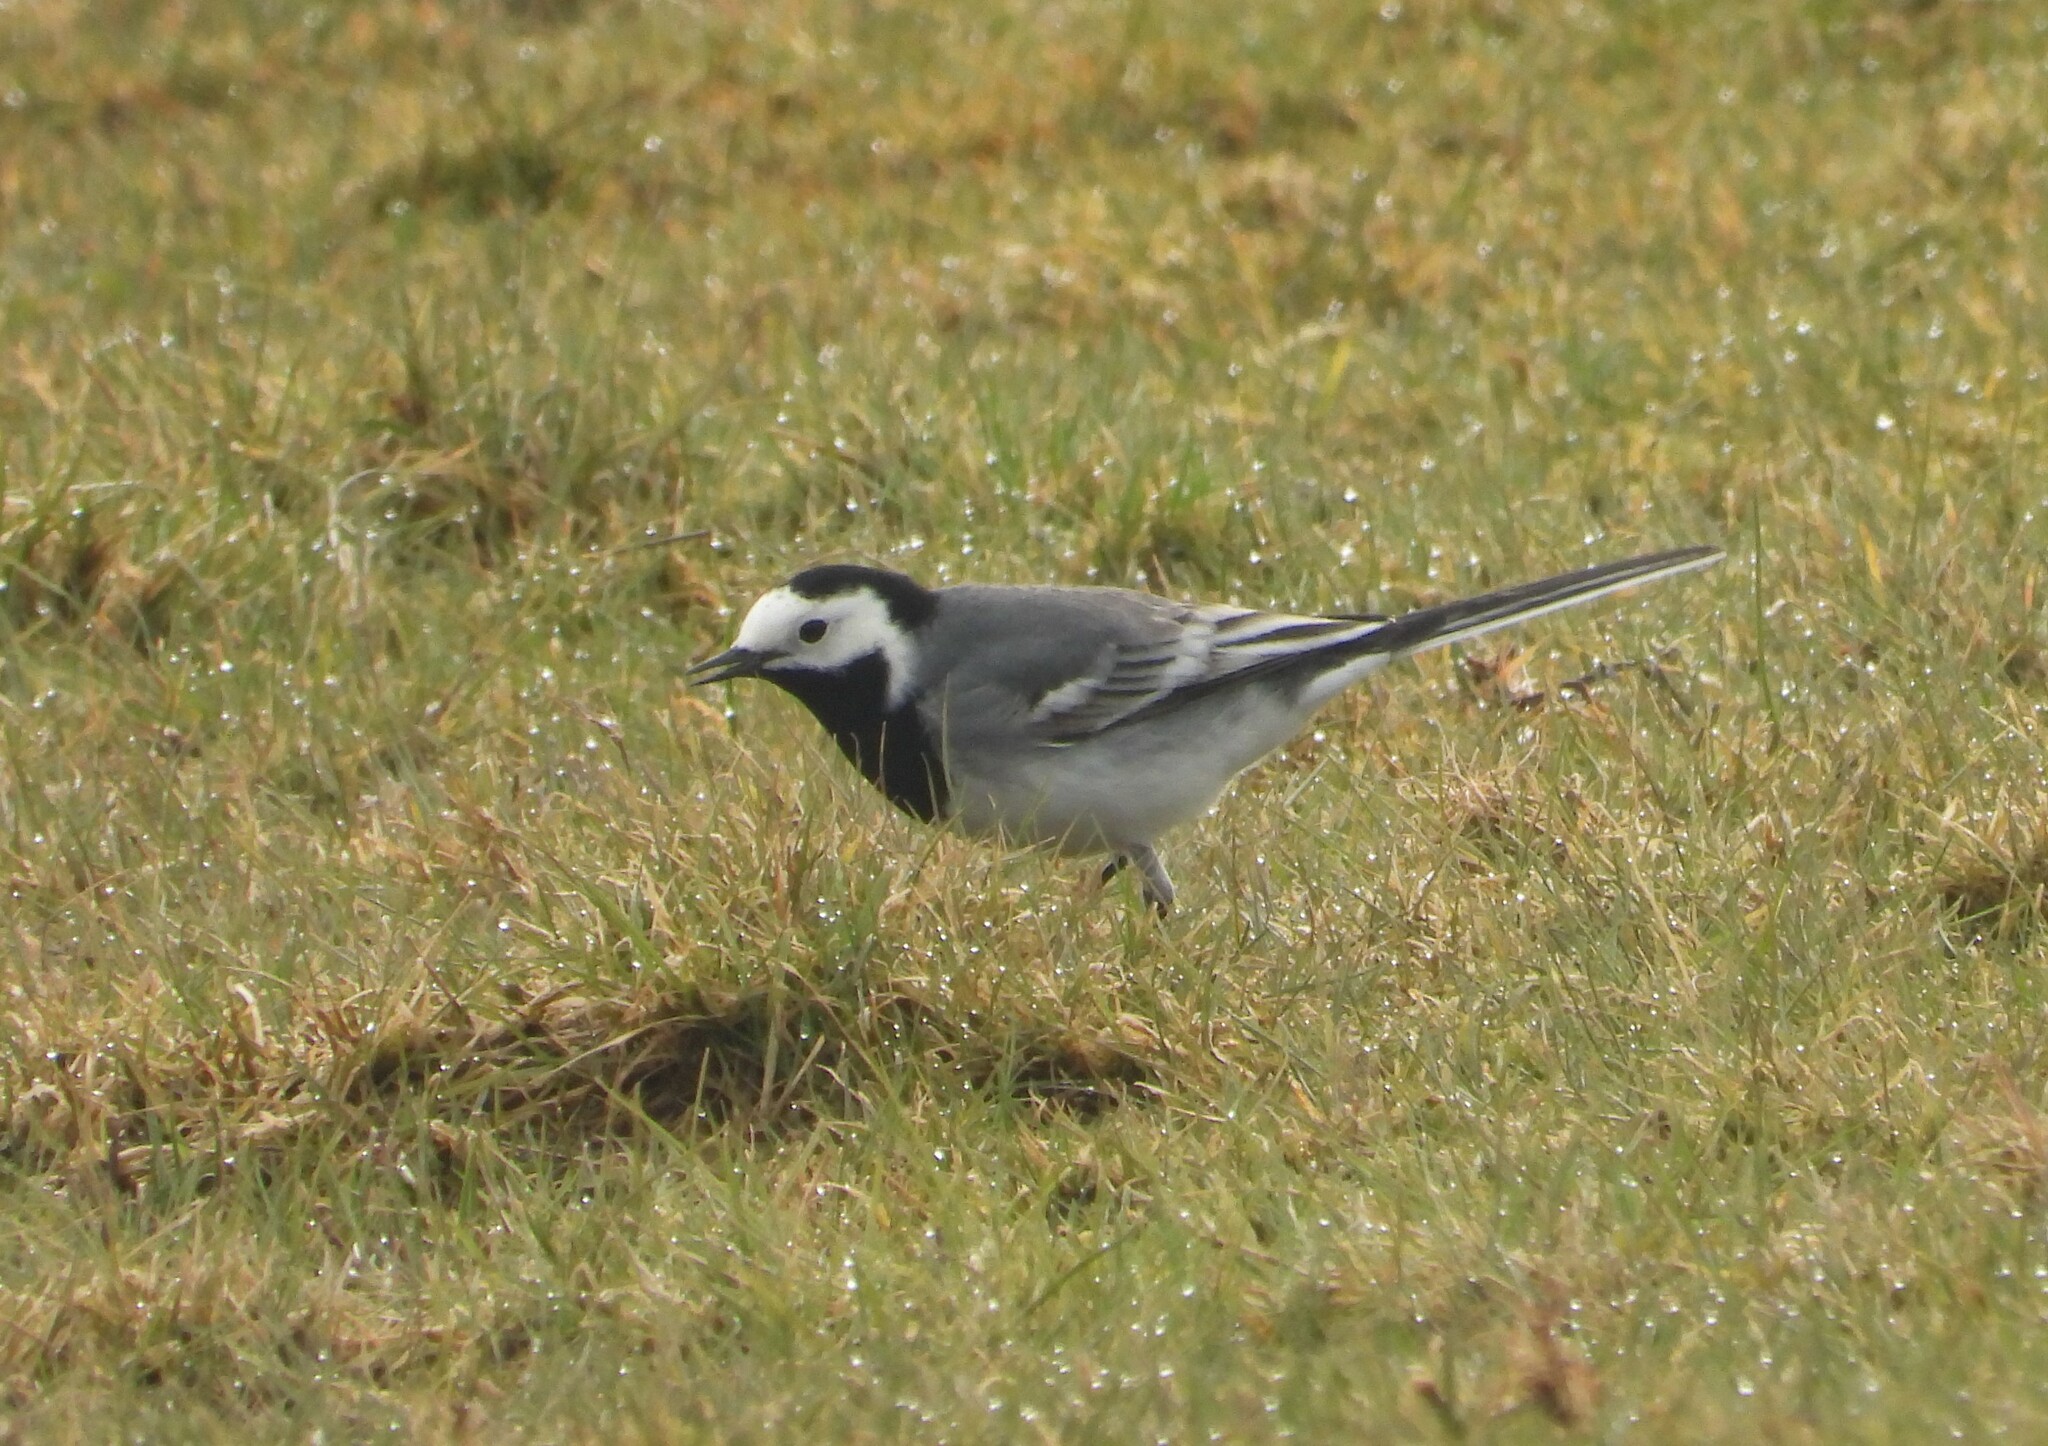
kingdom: Animalia
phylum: Chordata
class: Aves
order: Passeriformes
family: Motacillidae
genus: Motacilla
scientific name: Motacilla alba
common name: White wagtail
